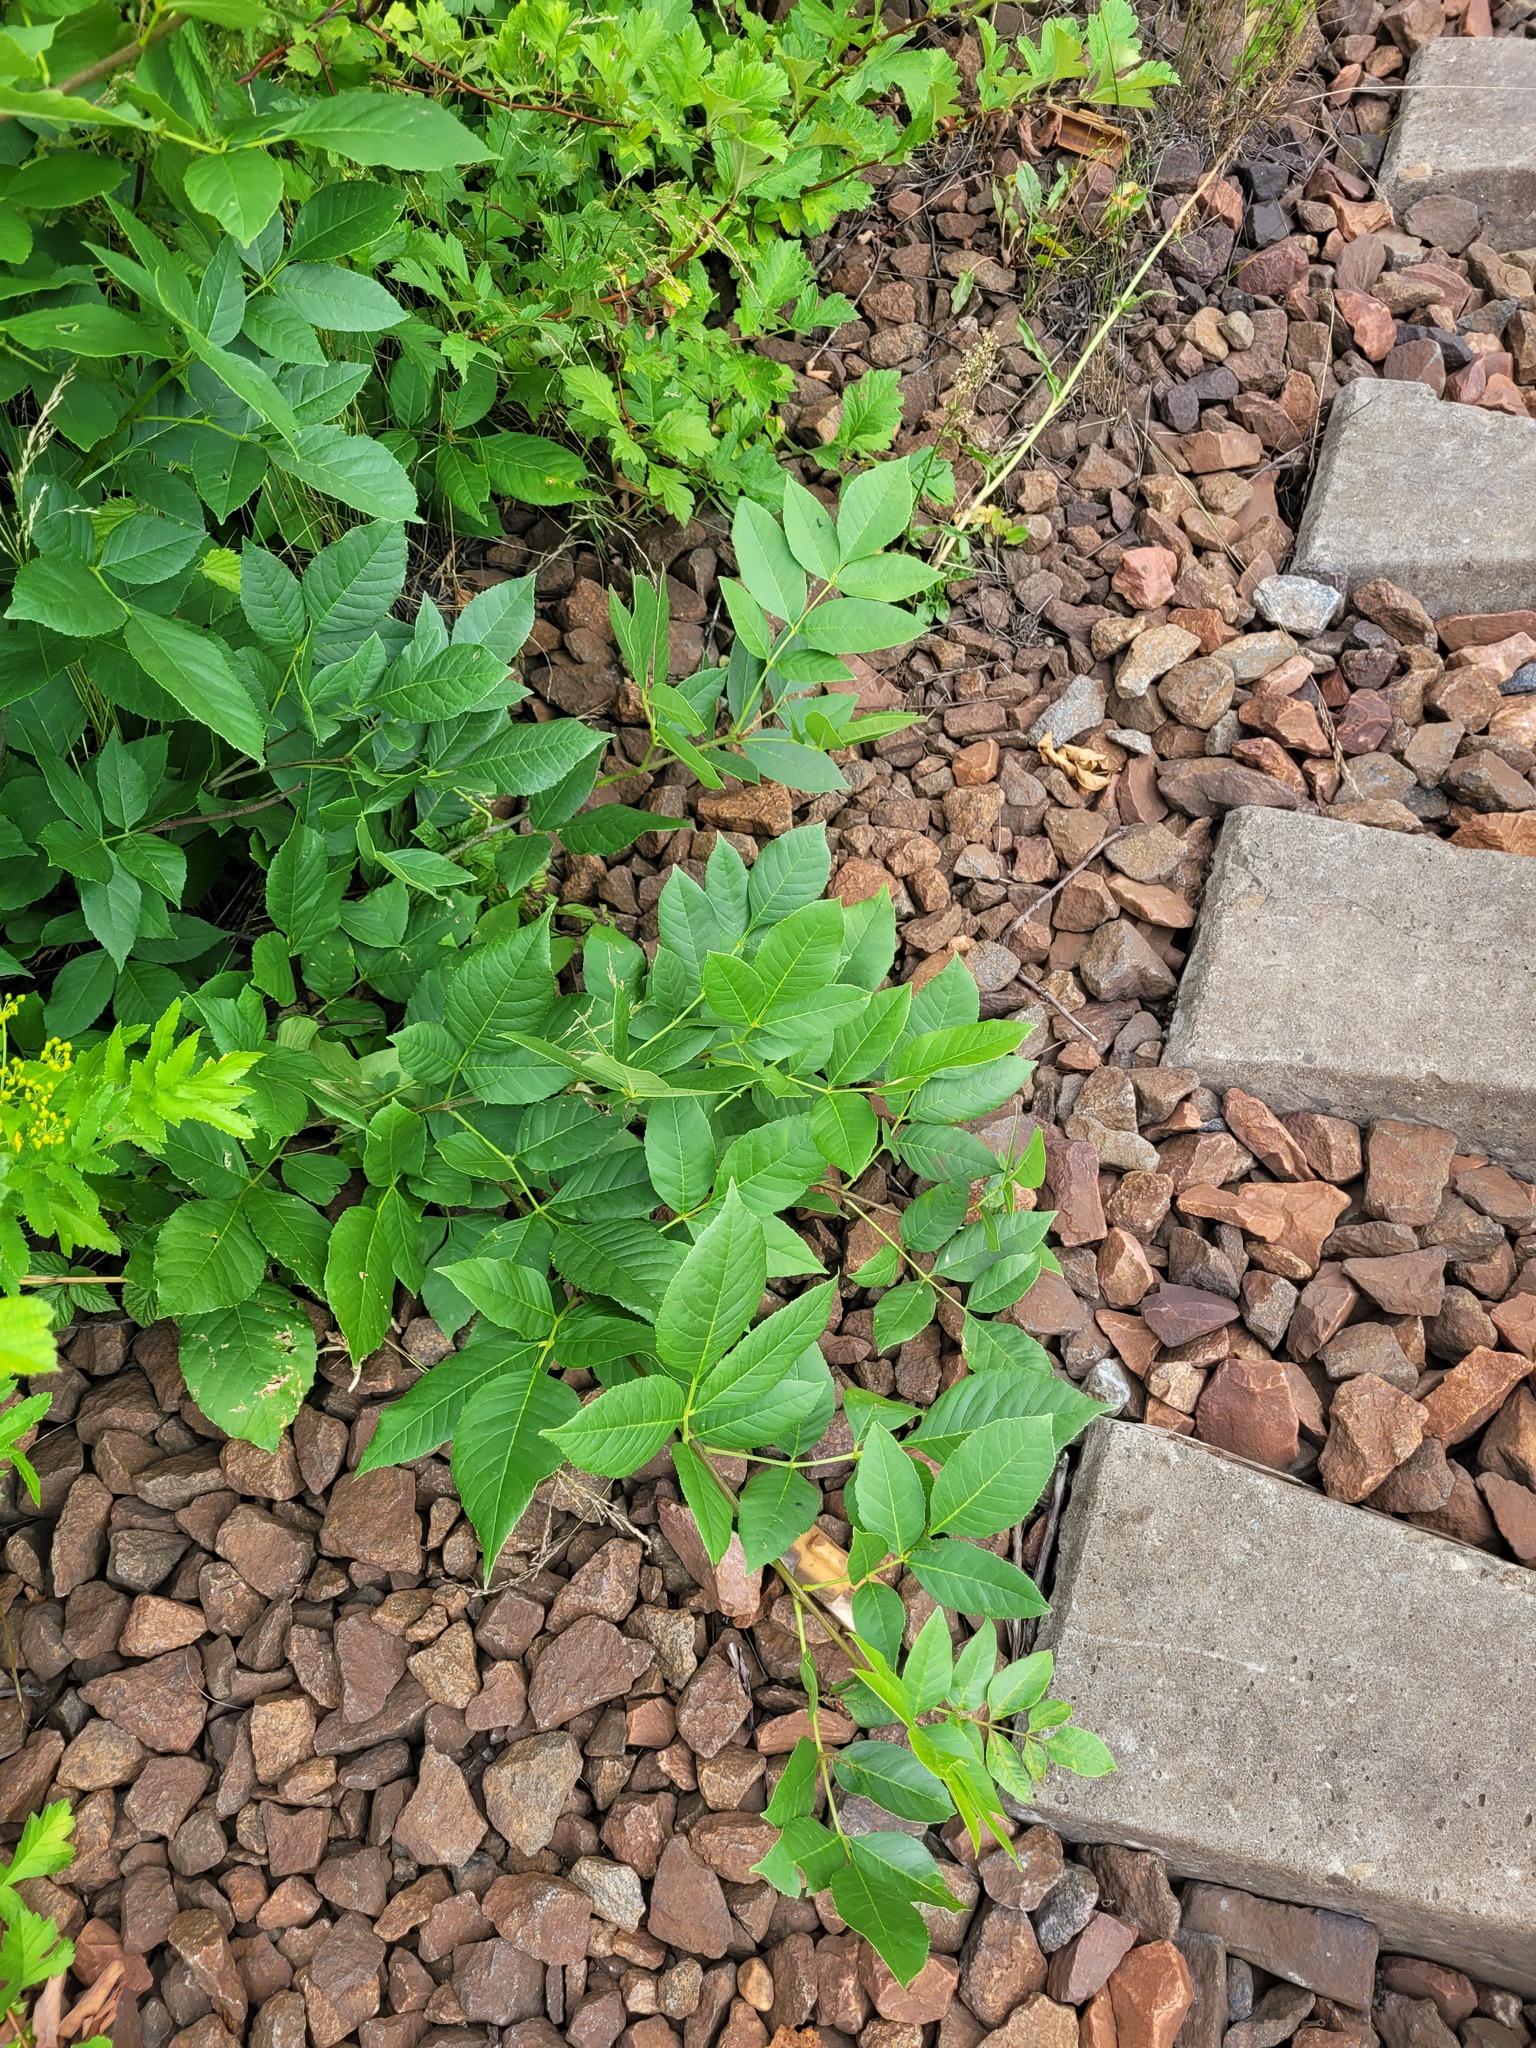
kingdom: Plantae
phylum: Tracheophyta
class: Magnoliopsida
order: Lamiales
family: Oleaceae
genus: Fraxinus
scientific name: Fraxinus pennsylvanica
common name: Green ash
